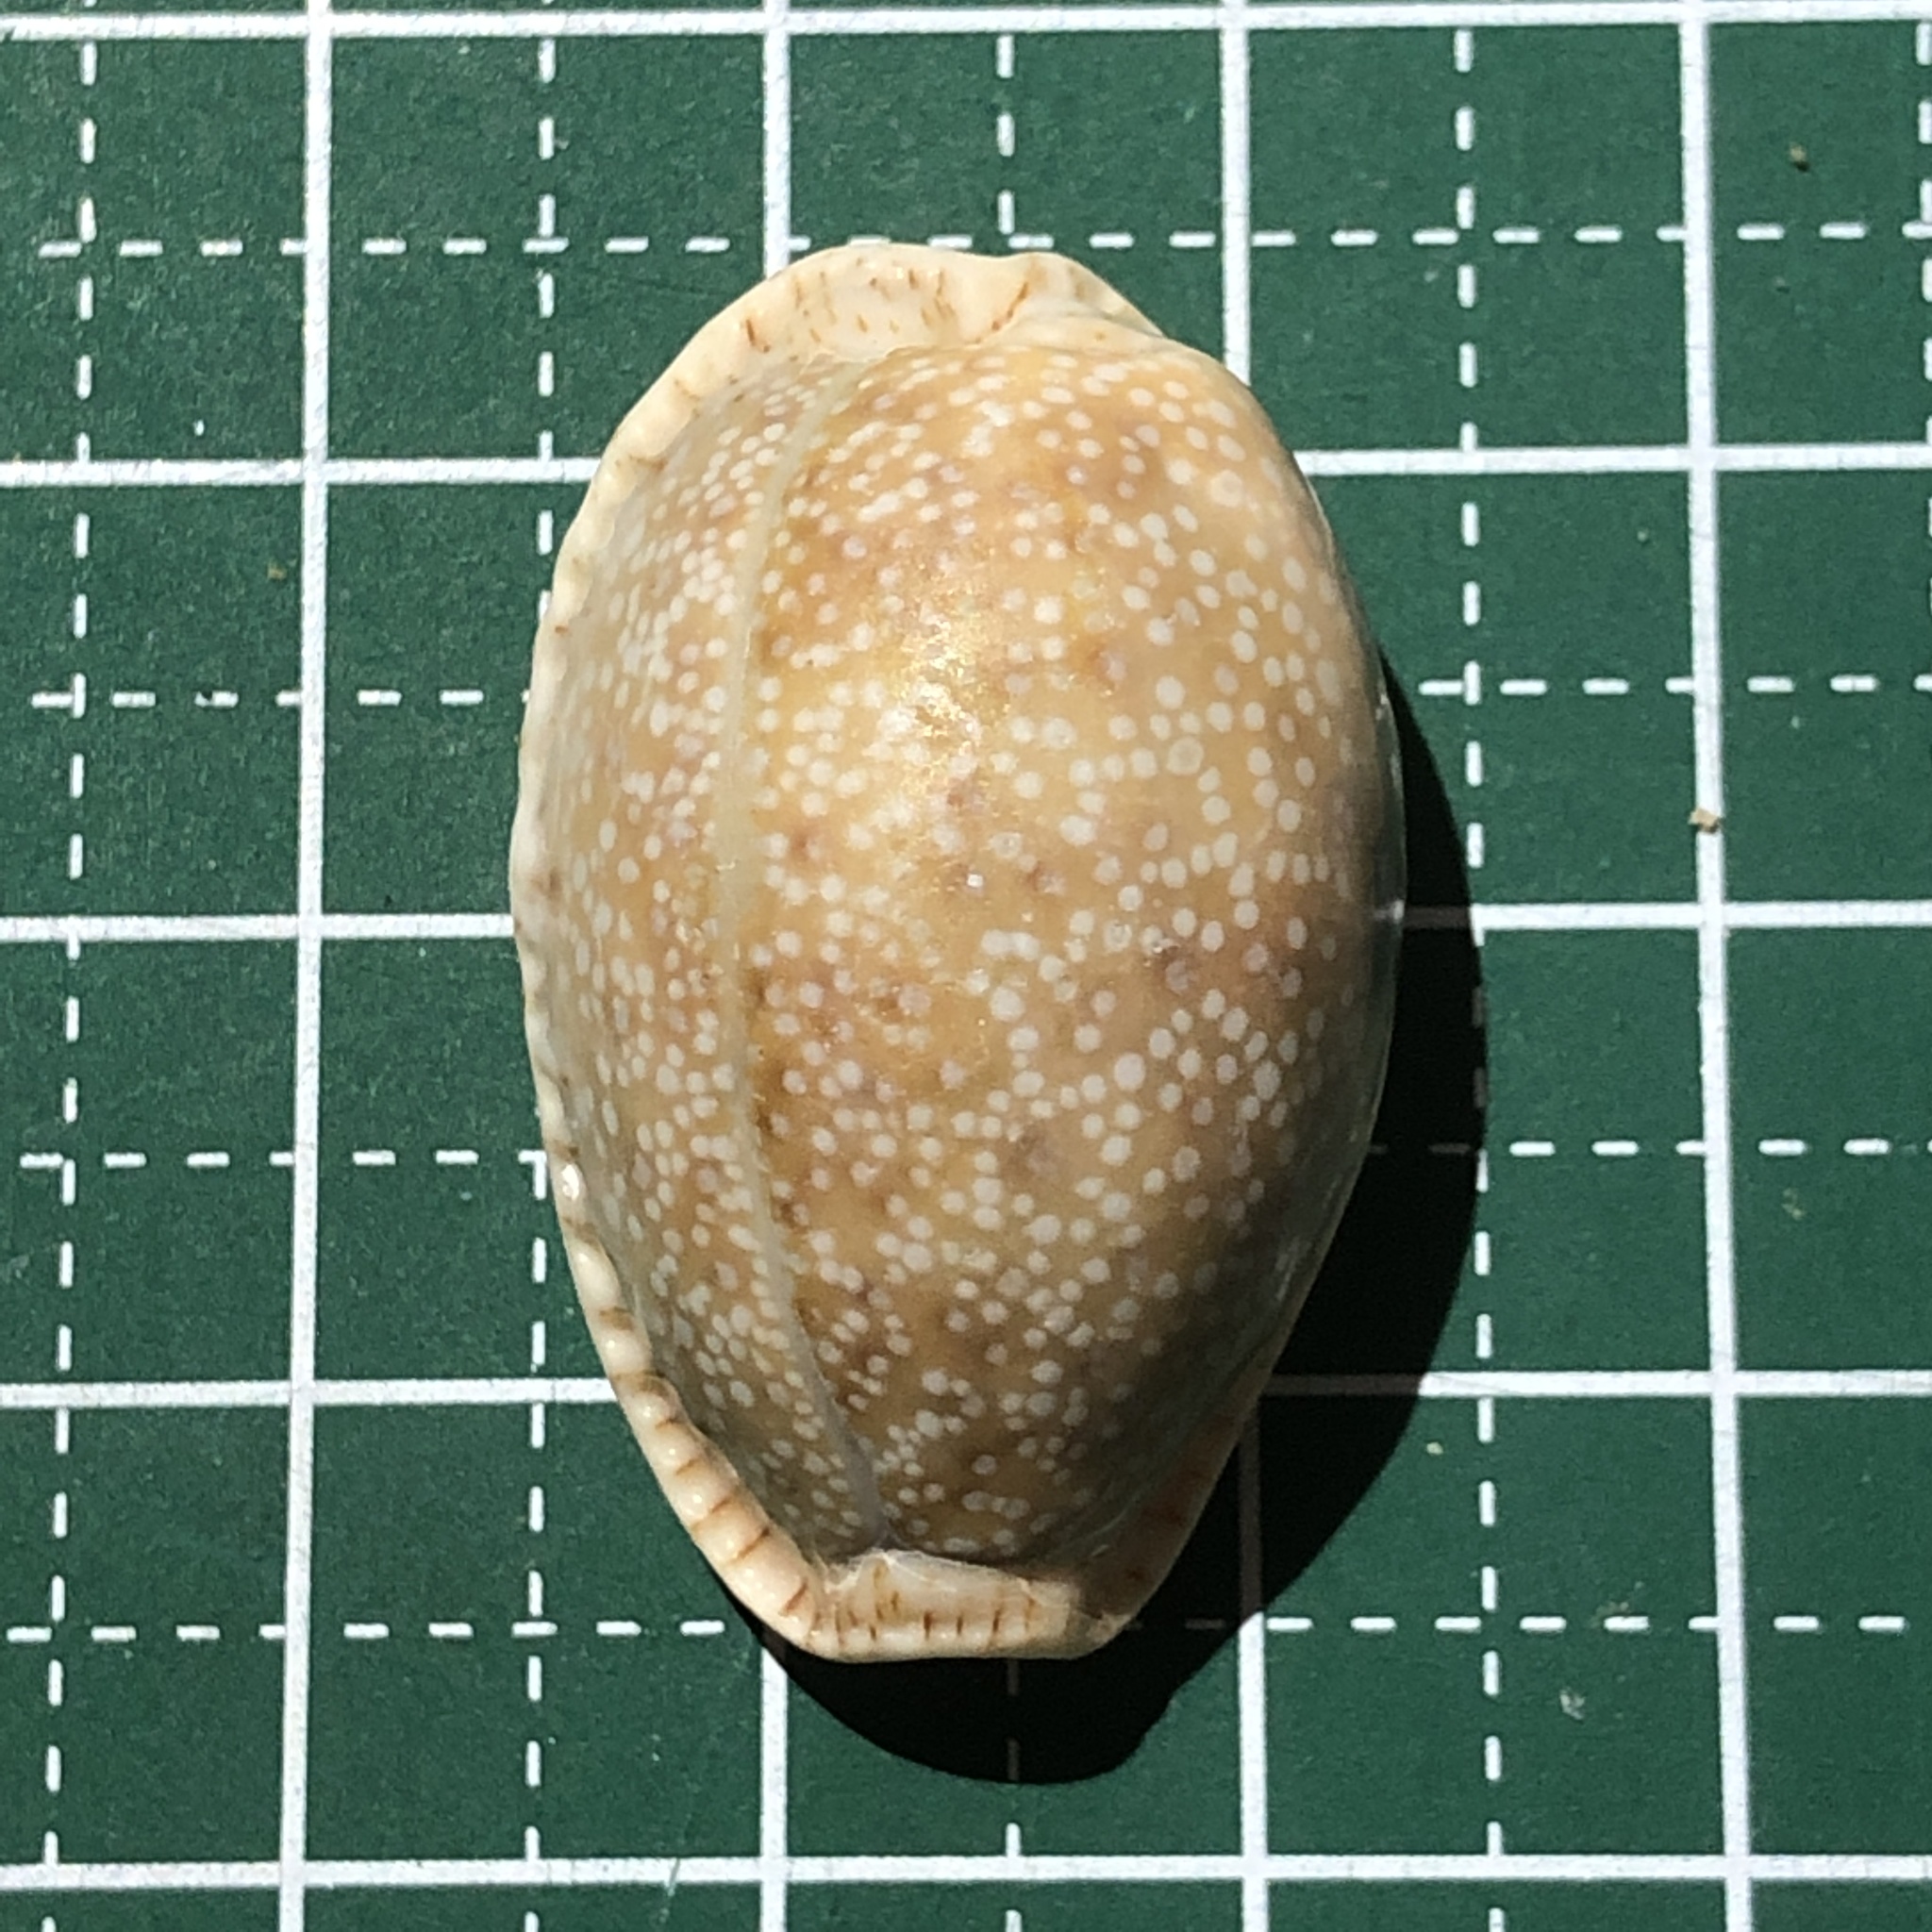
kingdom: Animalia
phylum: Mollusca
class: Gastropoda
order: Littorinimorpha
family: Cypraeidae
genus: Naria
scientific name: Naria erosa
